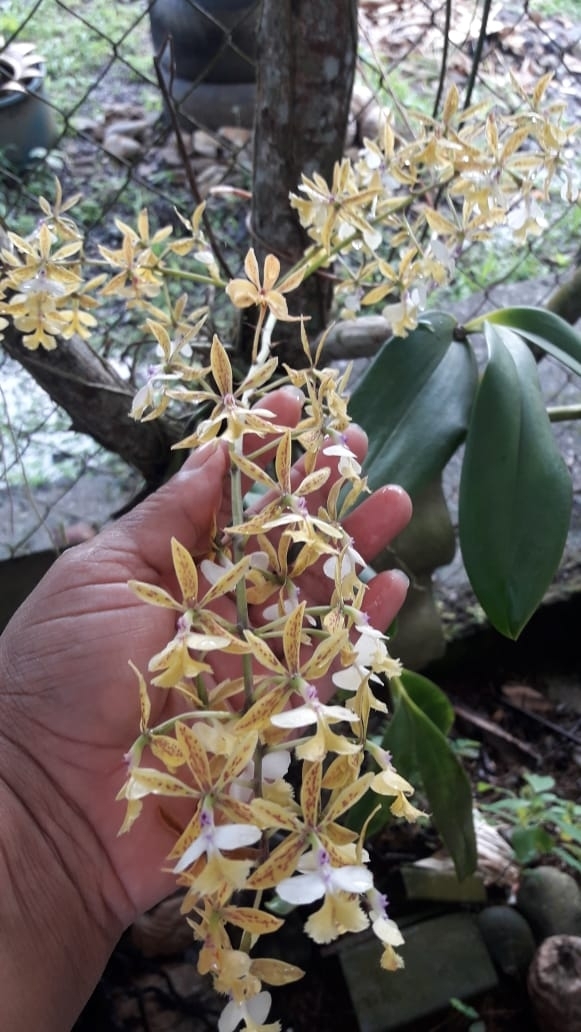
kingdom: Plantae
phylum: Tracheophyta
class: Liliopsida
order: Asparagales
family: Orchidaceae
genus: Epidendrum
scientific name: Epidendrum stamfordianum
